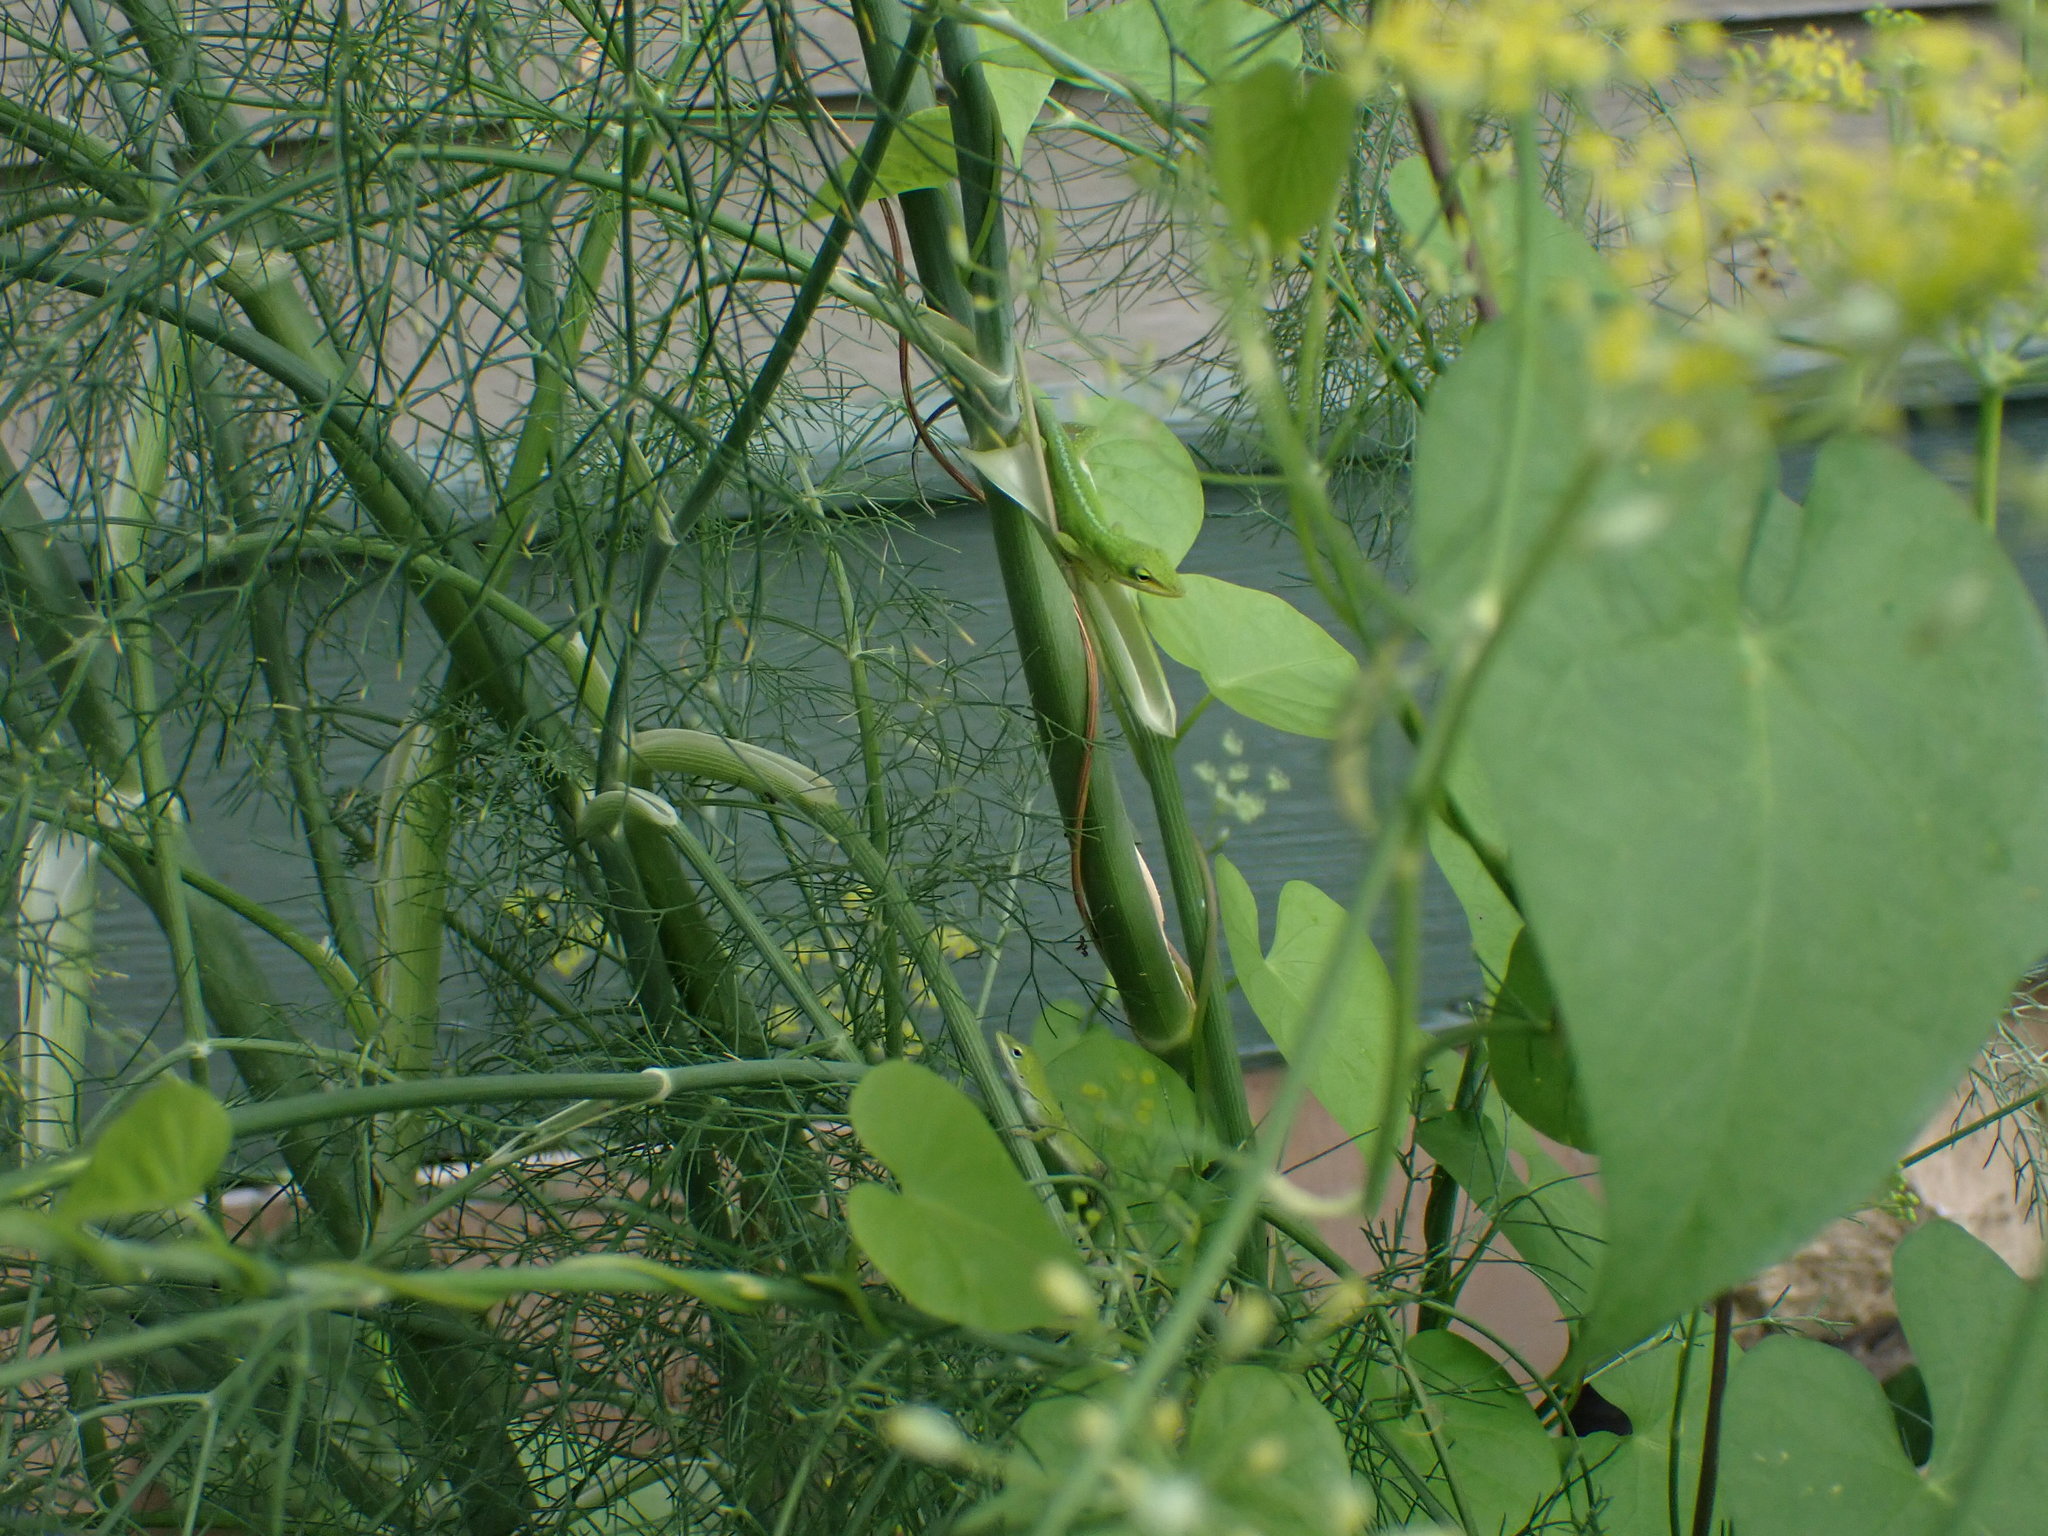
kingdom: Animalia
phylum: Chordata
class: Squamata
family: Dactyloidae
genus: Anolis
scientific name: Anolis carolinensis
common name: Green anole
